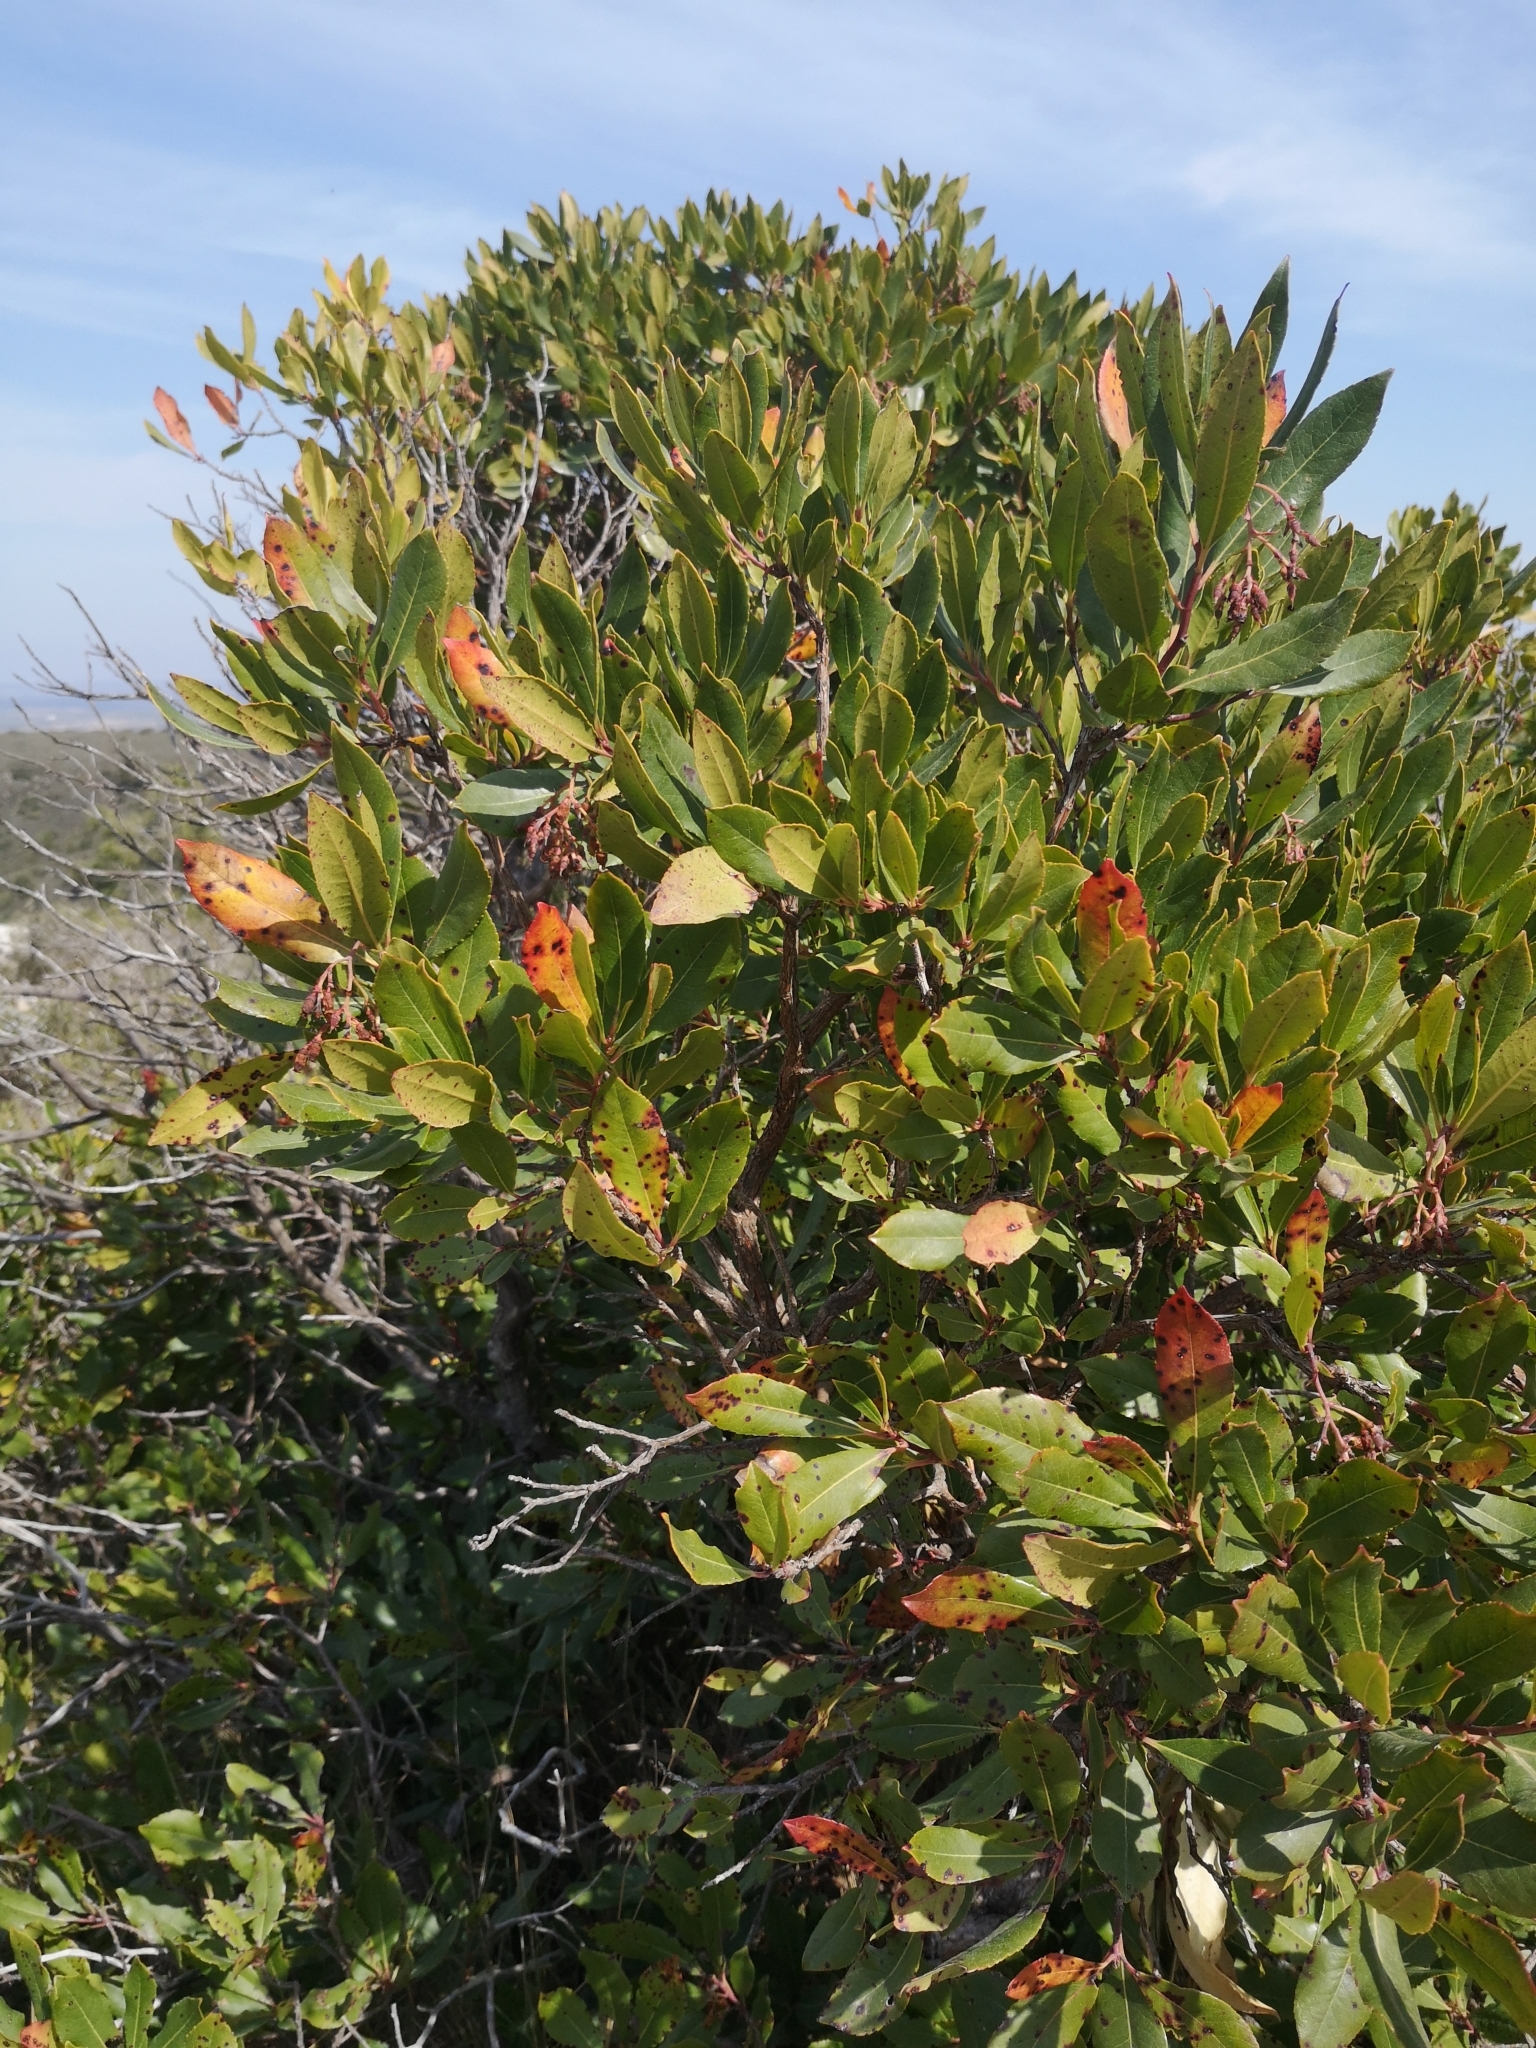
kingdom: Plantae
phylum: Tracheophyta
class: Magnoliopsida
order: Ericales
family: Ericaceae
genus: Arbutus
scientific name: Arbutus unedo
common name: Strawberry-tree
